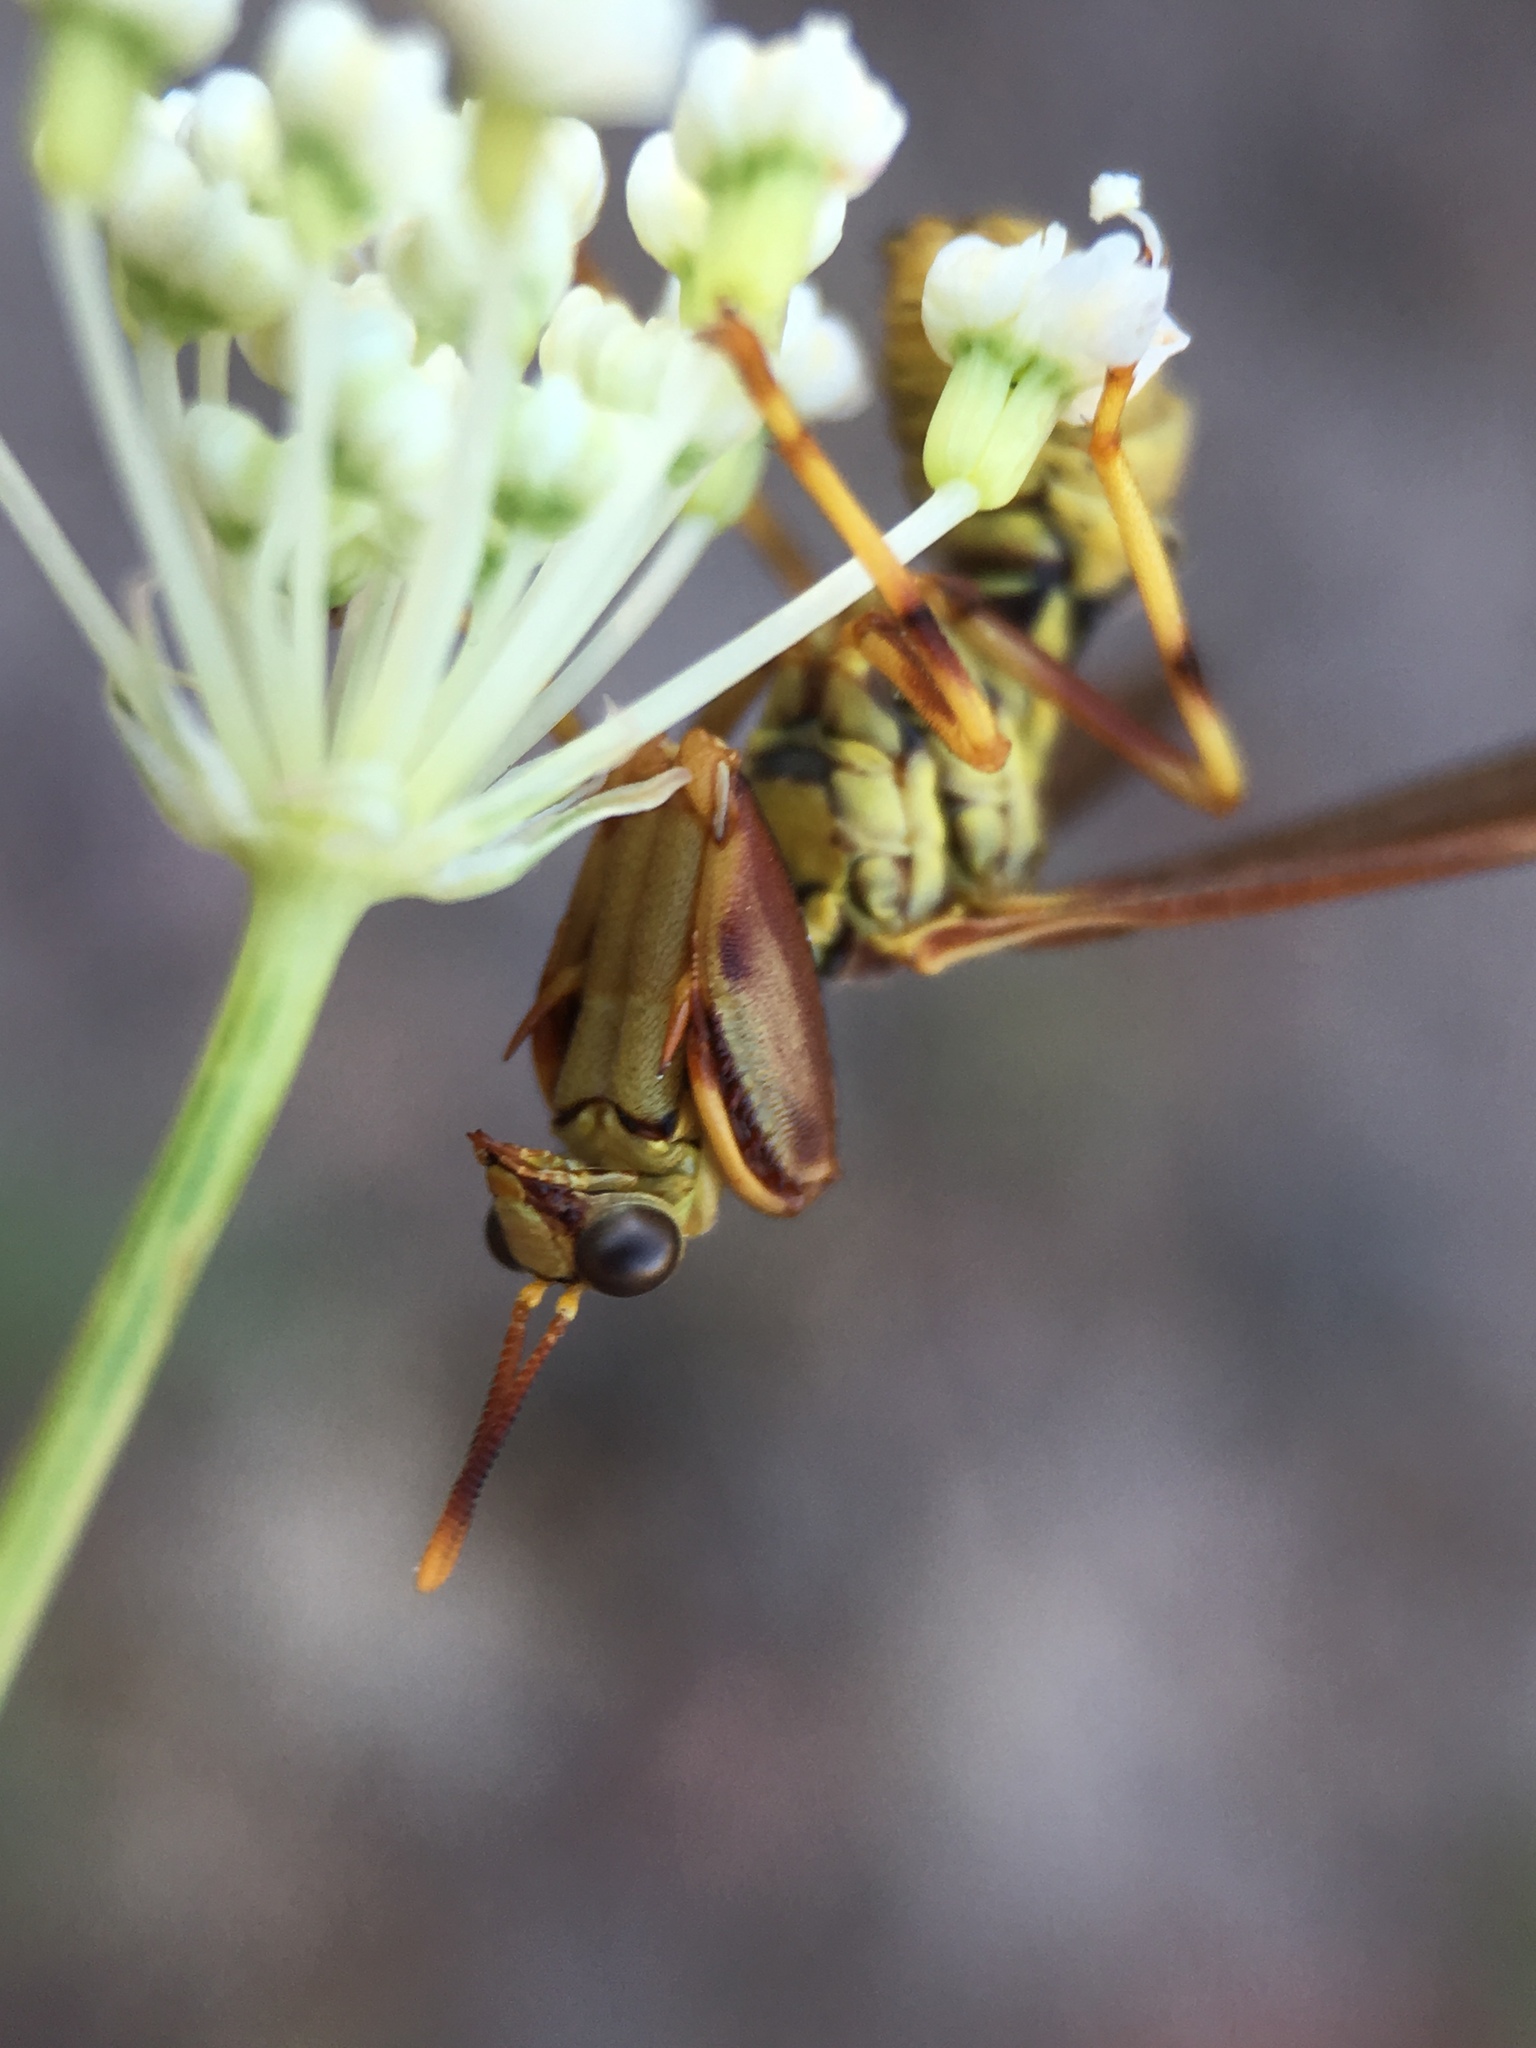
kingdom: Animalia
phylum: Arthropoda
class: Insecta
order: Neuroptera
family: Mantispidae
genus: Climaciella
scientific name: Climaciella brunnea
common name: Brown wasp mantidfly
